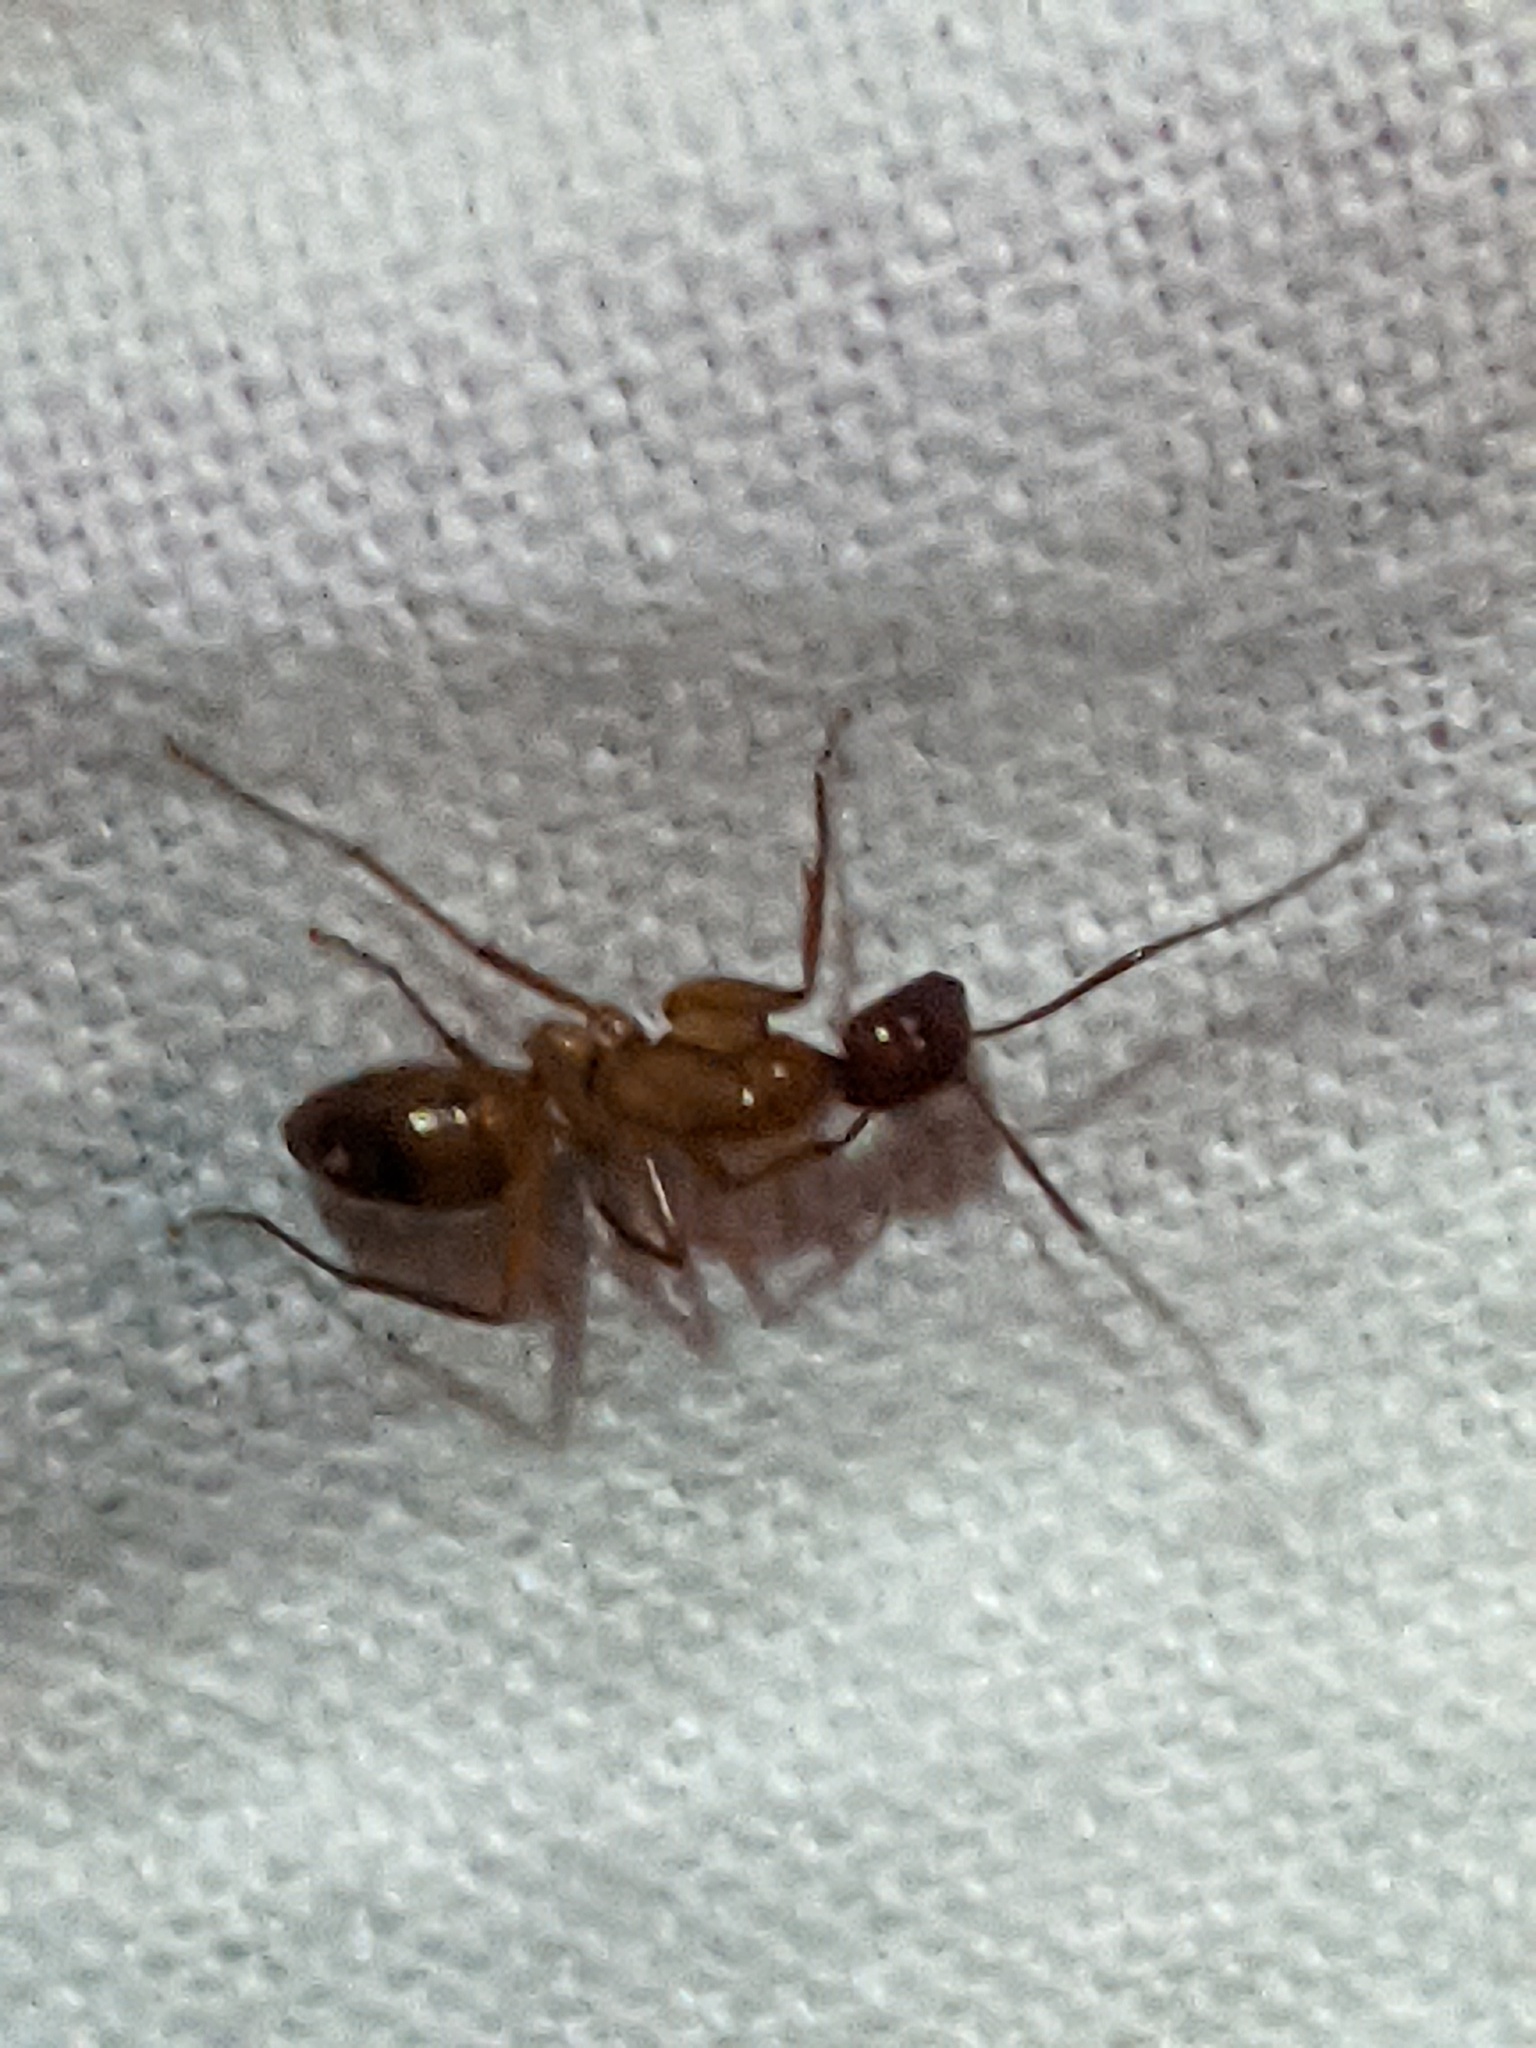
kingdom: Animalia
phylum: Arthropoda
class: Insecta
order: Hymenoptera
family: Formicidae
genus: Camponotus
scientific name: Camponotus castaneus
